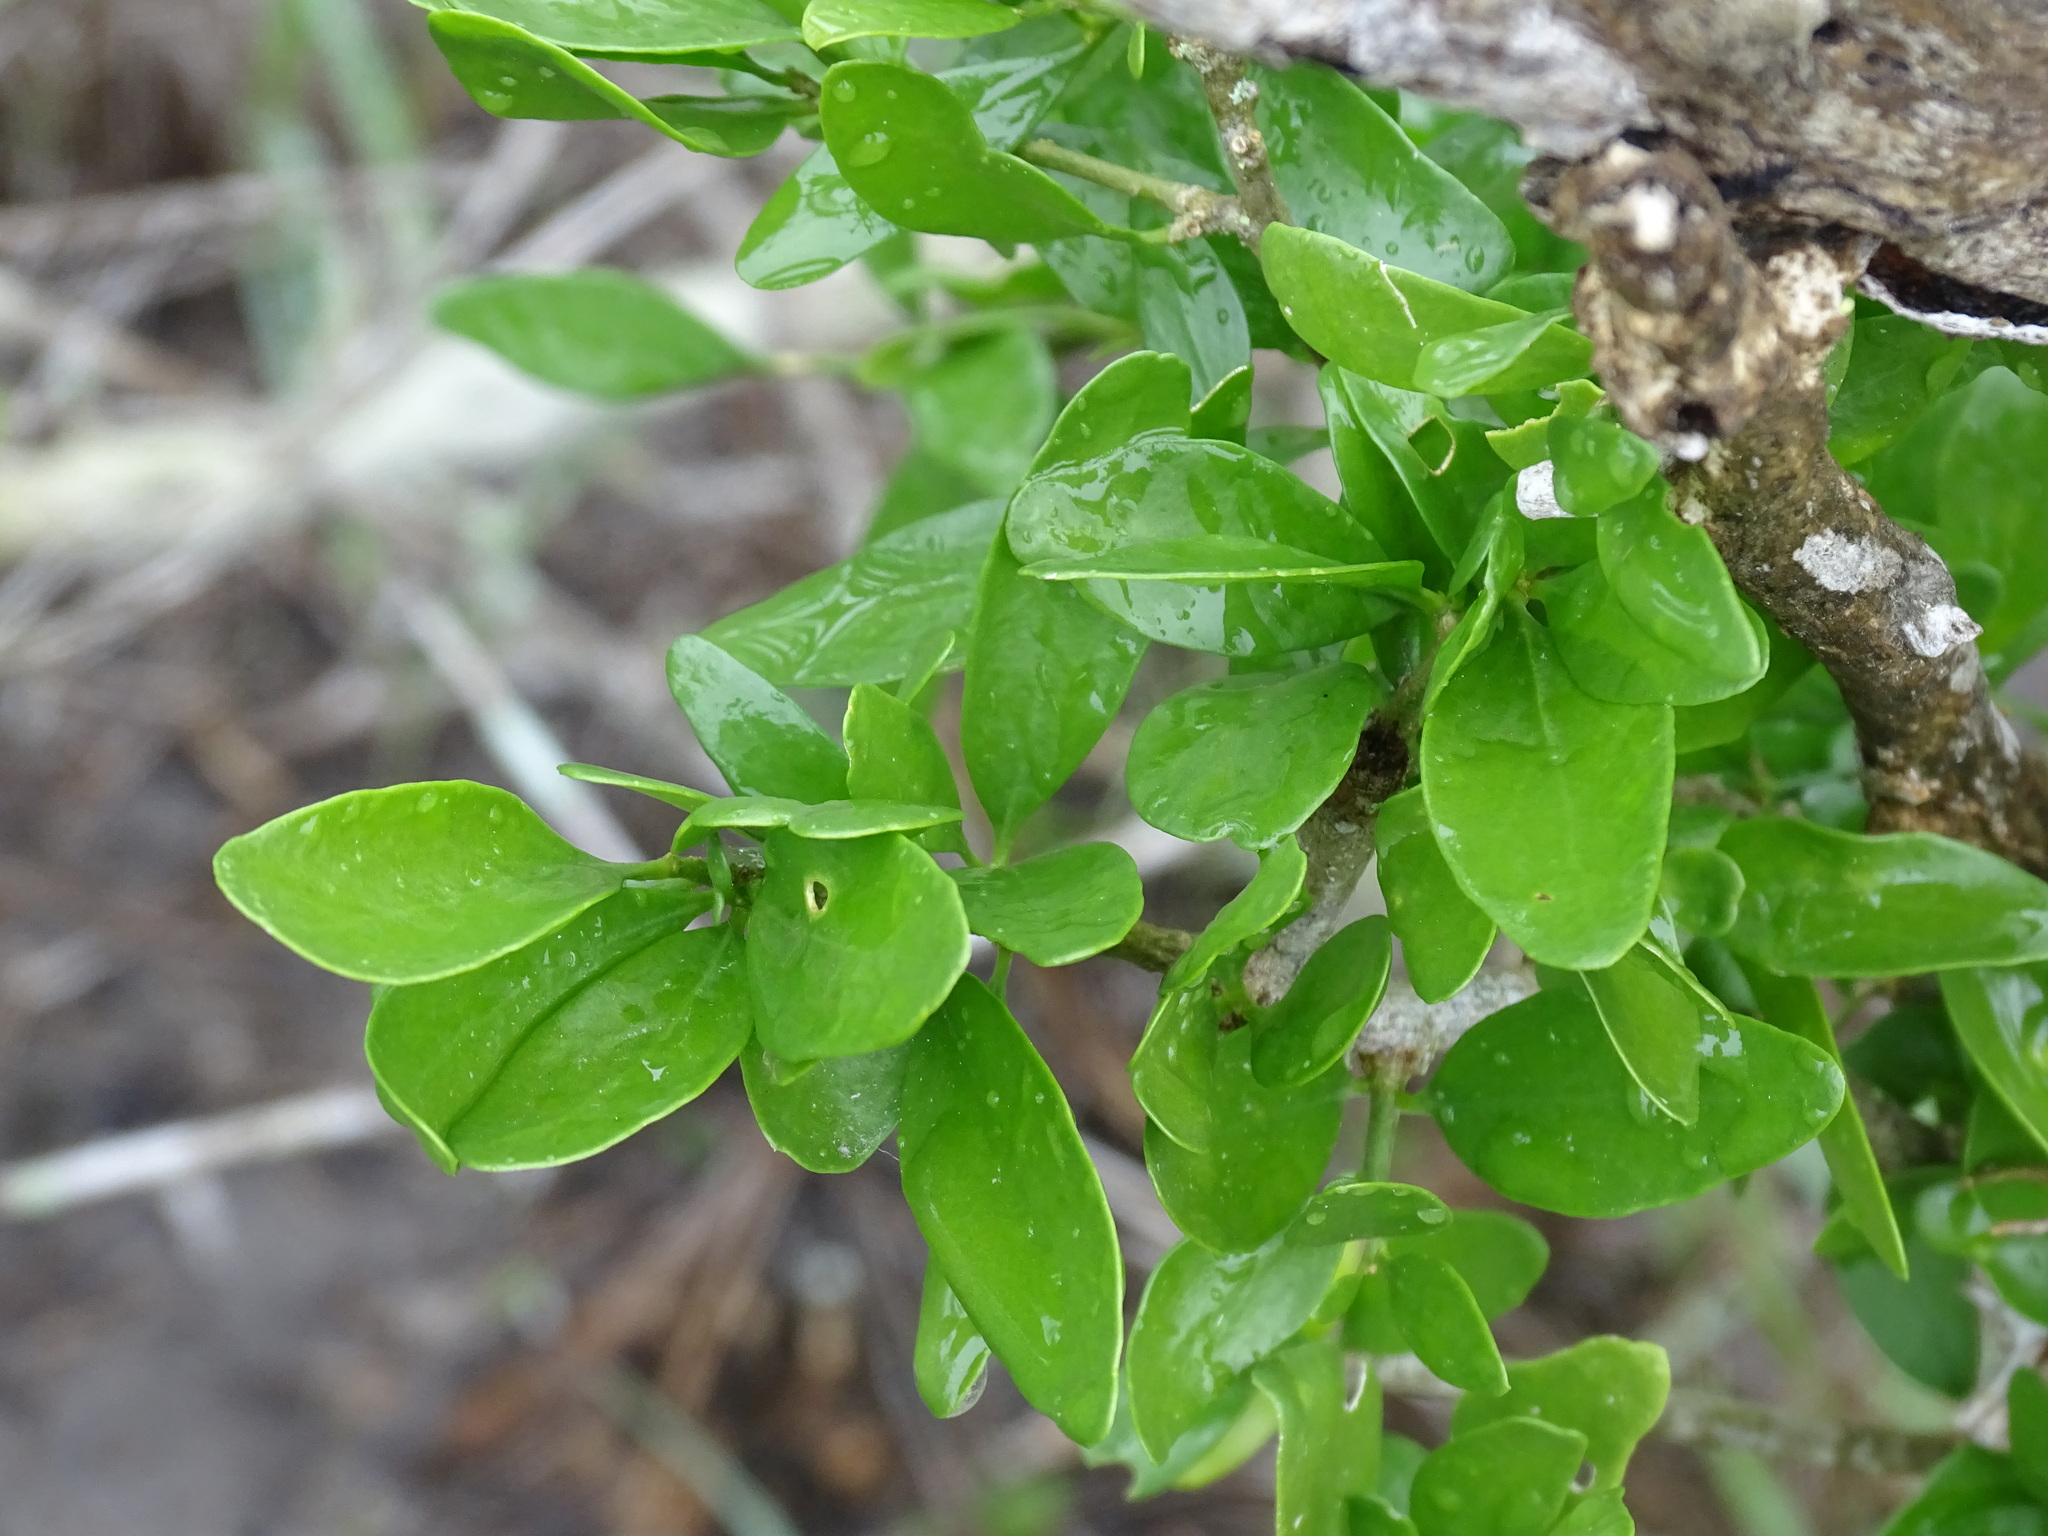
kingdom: Plantae
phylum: Tracheophyta
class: Magnoliopsida
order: Malpighiales
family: Euphorbiaceae
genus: Adelia
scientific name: Adelia vaseyi
